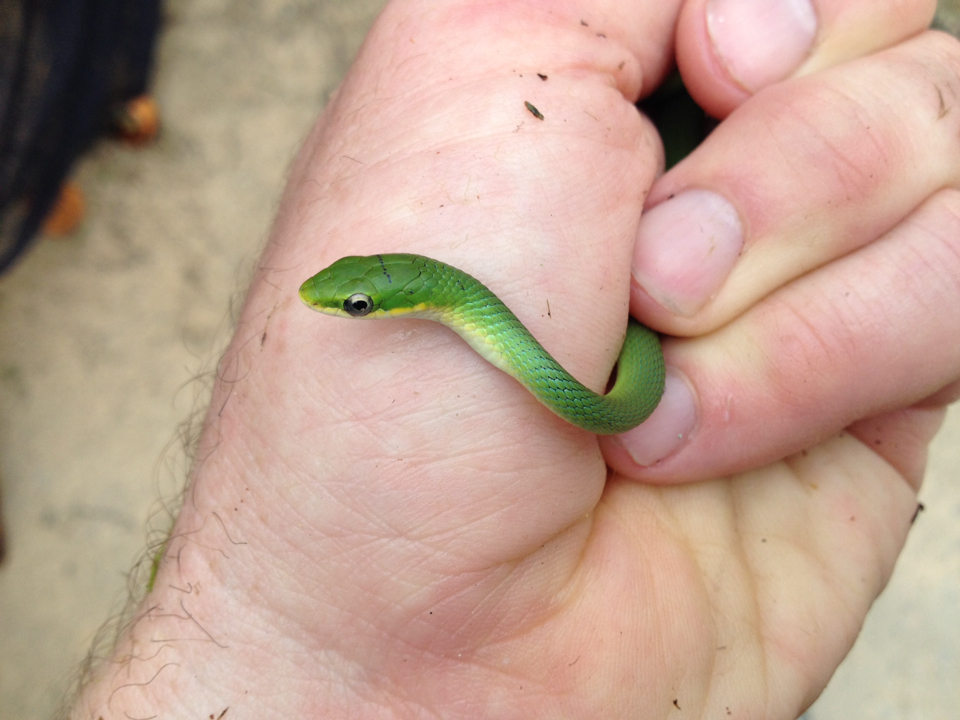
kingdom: Animalia
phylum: Chordata
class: Squamata
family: Colubridae
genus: Opheodrys
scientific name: Opheodrys aestivus
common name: Rough greensnake
